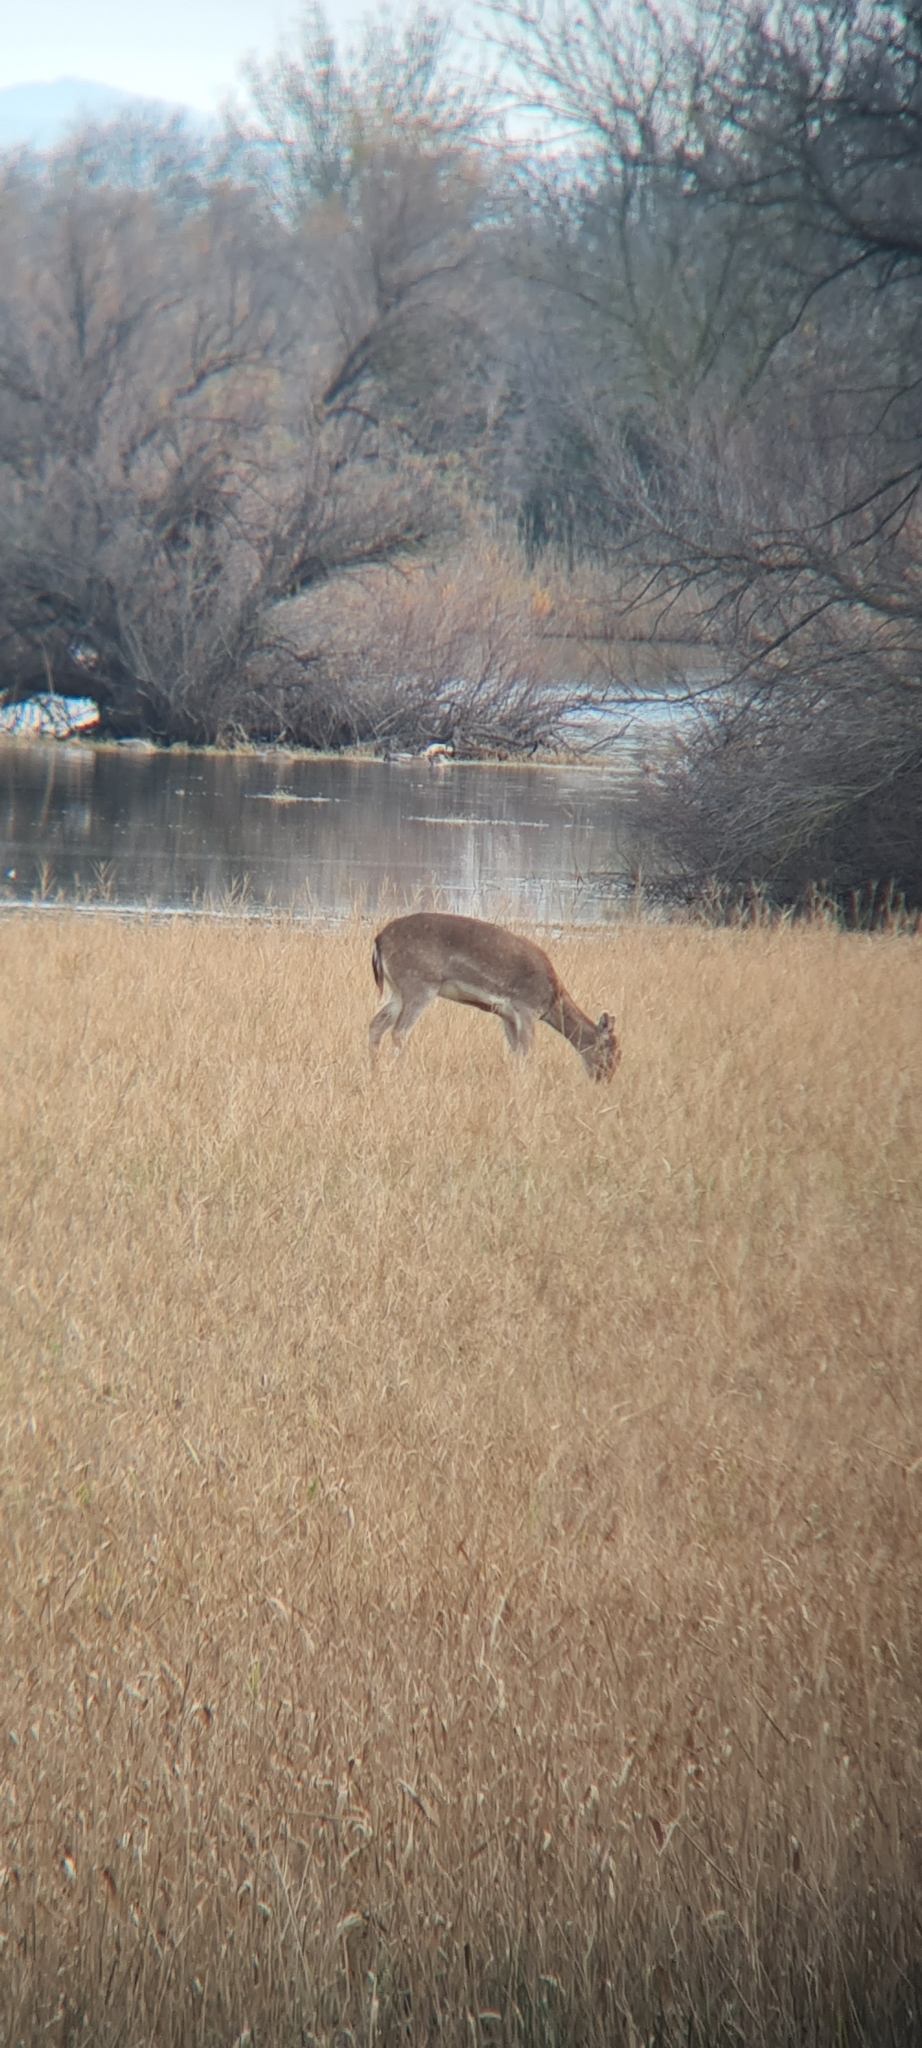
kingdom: Animalia
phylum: Chordata
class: Mammalia
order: Artiodactyla
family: Cervidae
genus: Dama
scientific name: Dama dama
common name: Fallow deer
